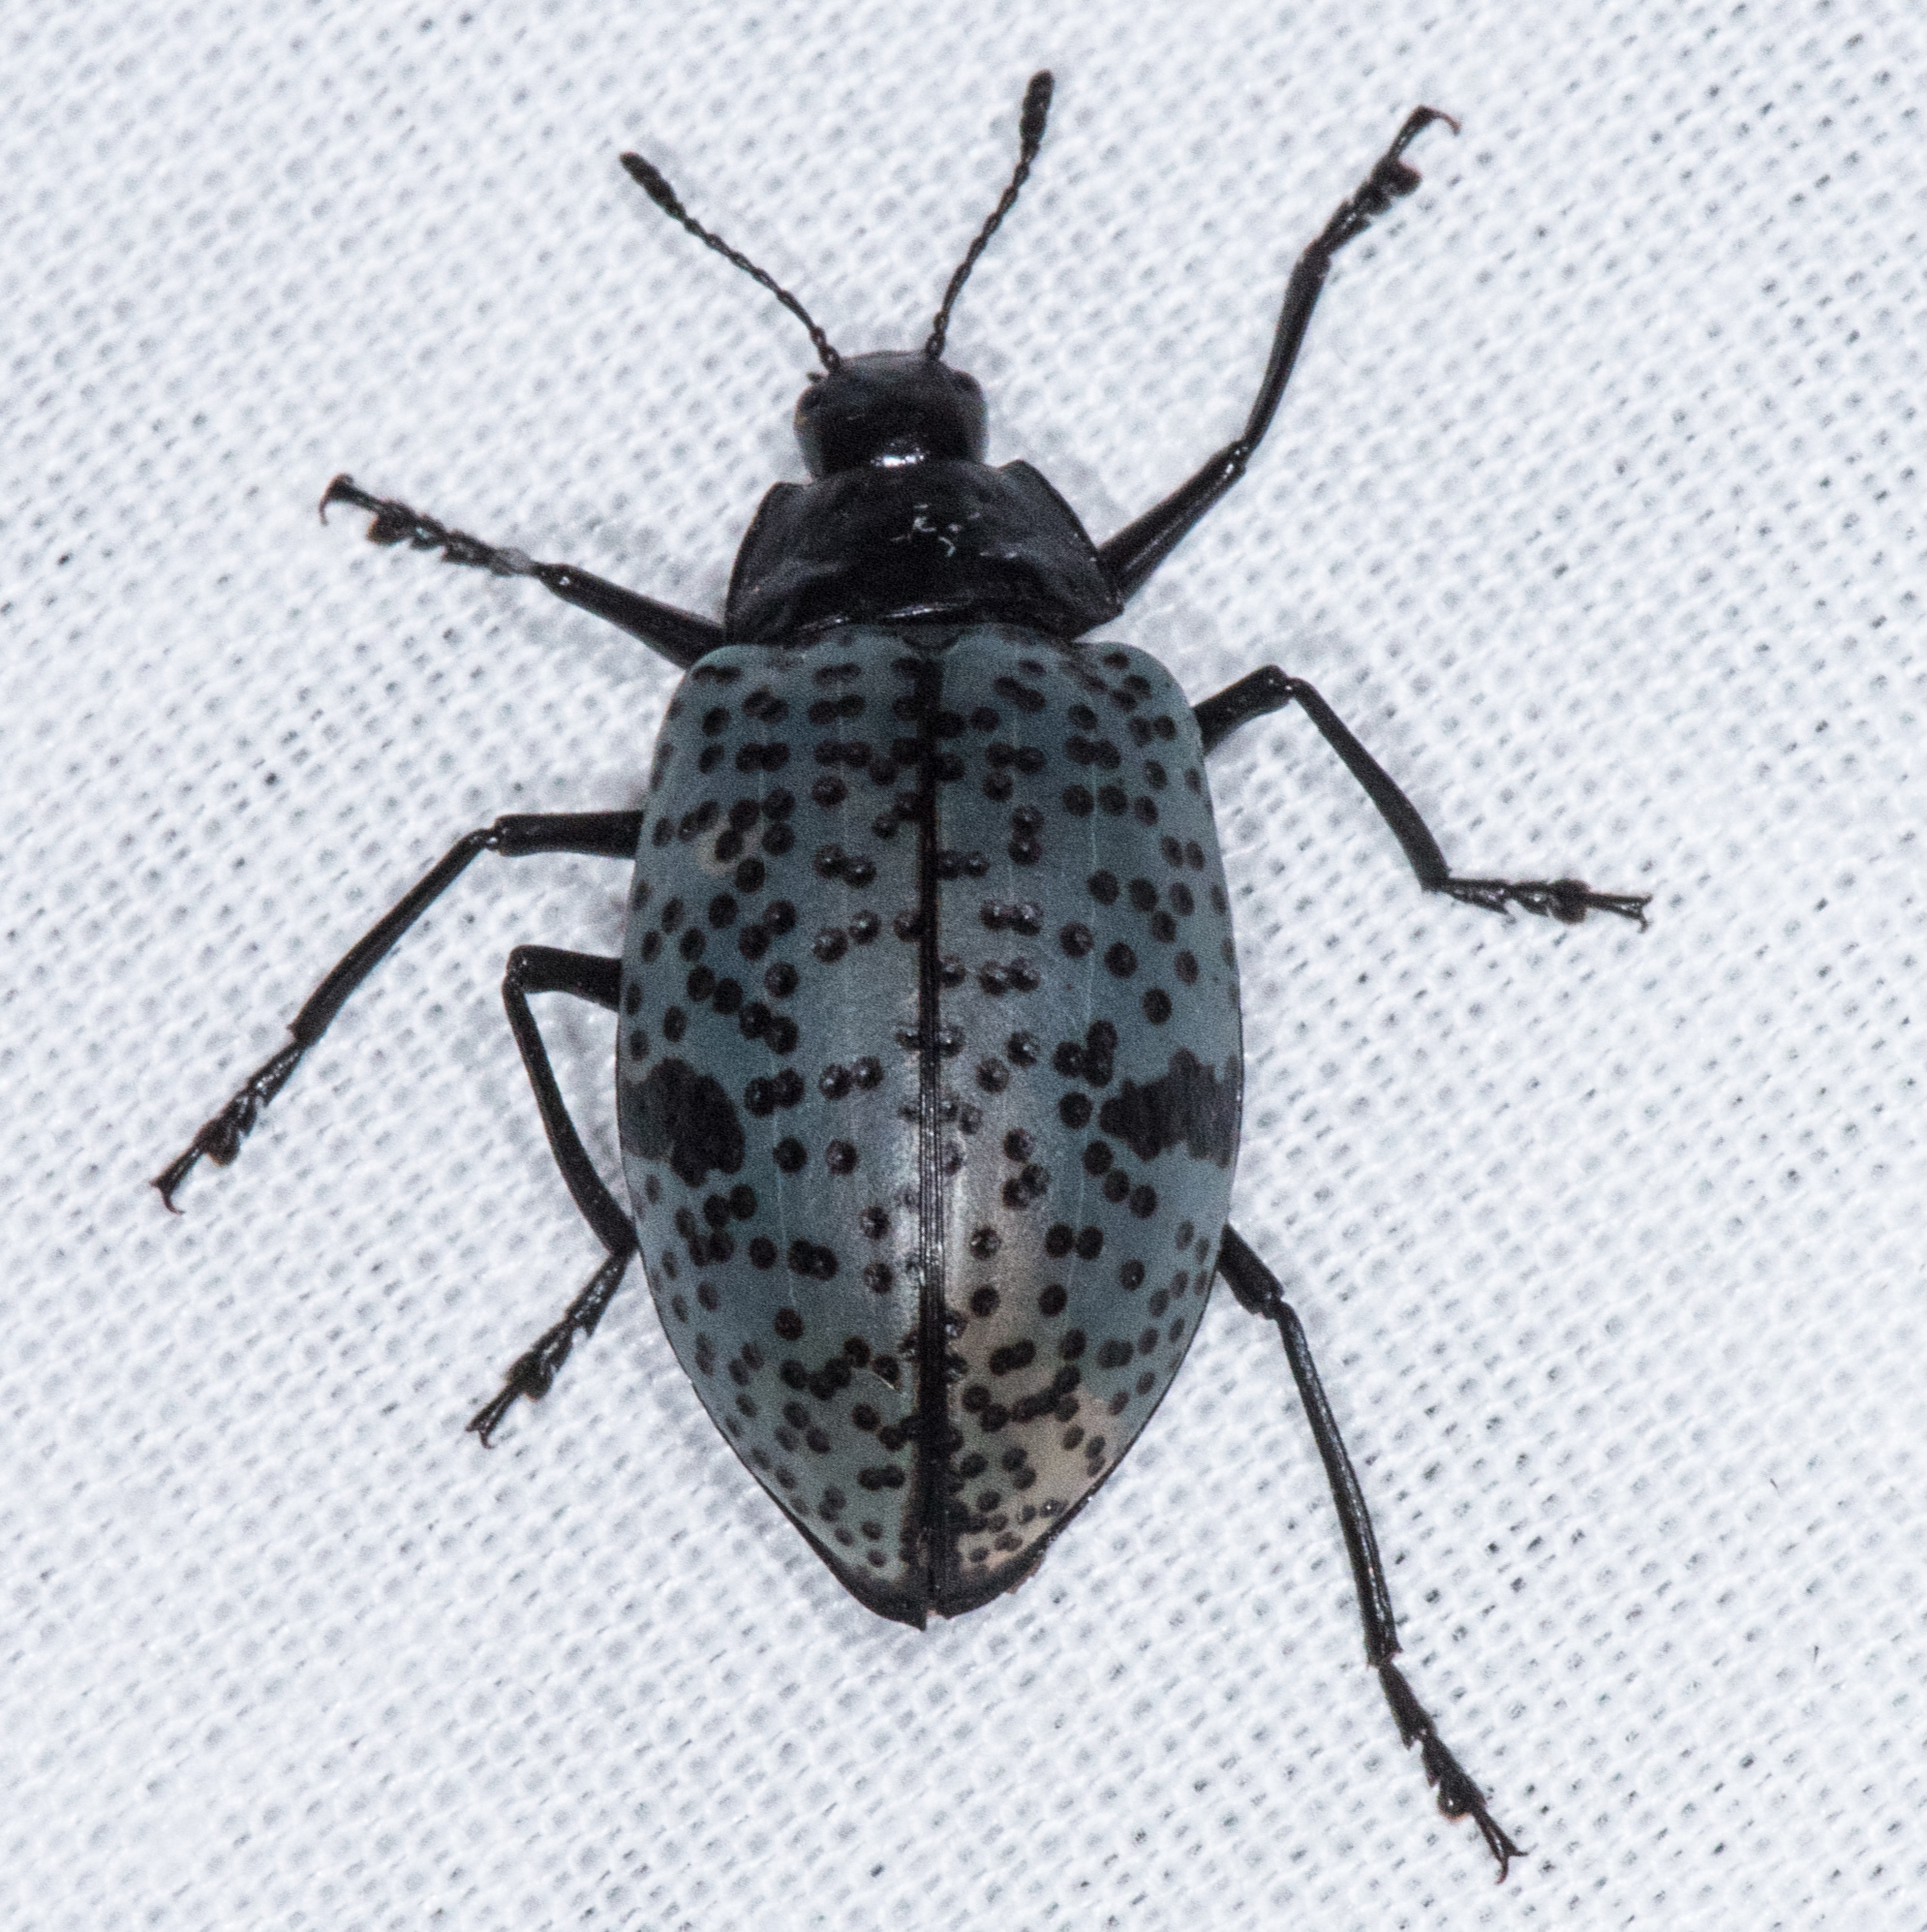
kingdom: Animalia
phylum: Arthropoda
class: Insecta
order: Coleoptera
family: Erotylidae
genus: Gibbifer
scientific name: Gibbifer californicus
